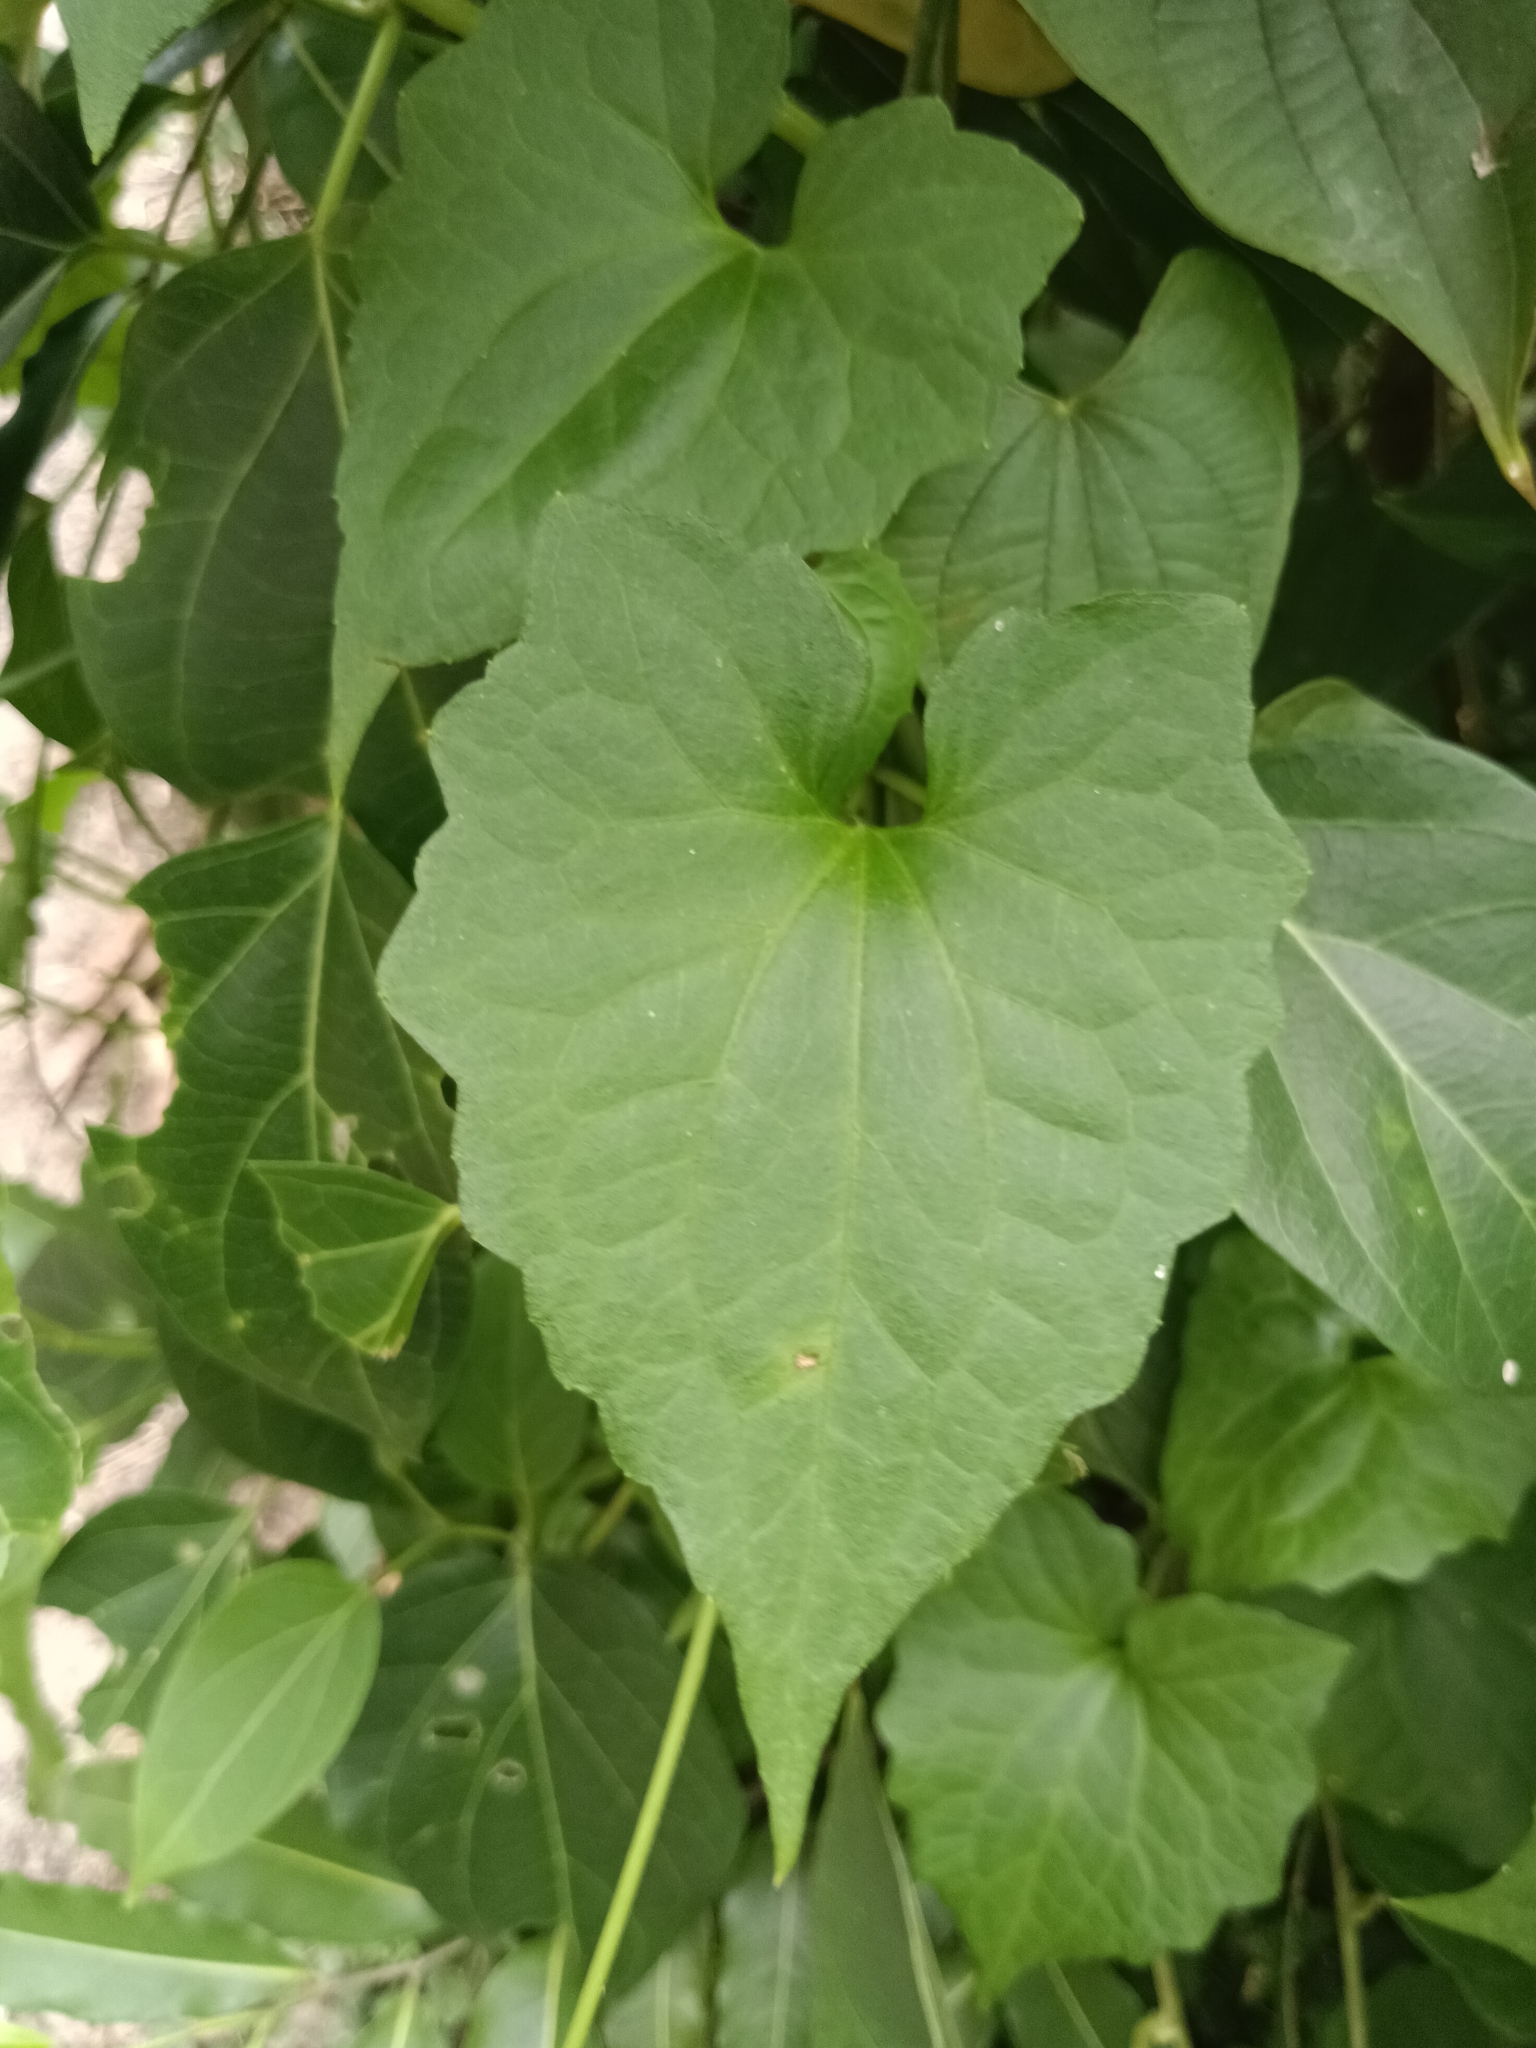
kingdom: Plantae
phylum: Tracheophyta
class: Magnoliopsida
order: Asterales
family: Asteraceae
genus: Mikania
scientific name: Mikania micrantha
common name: Mile-a-minute
